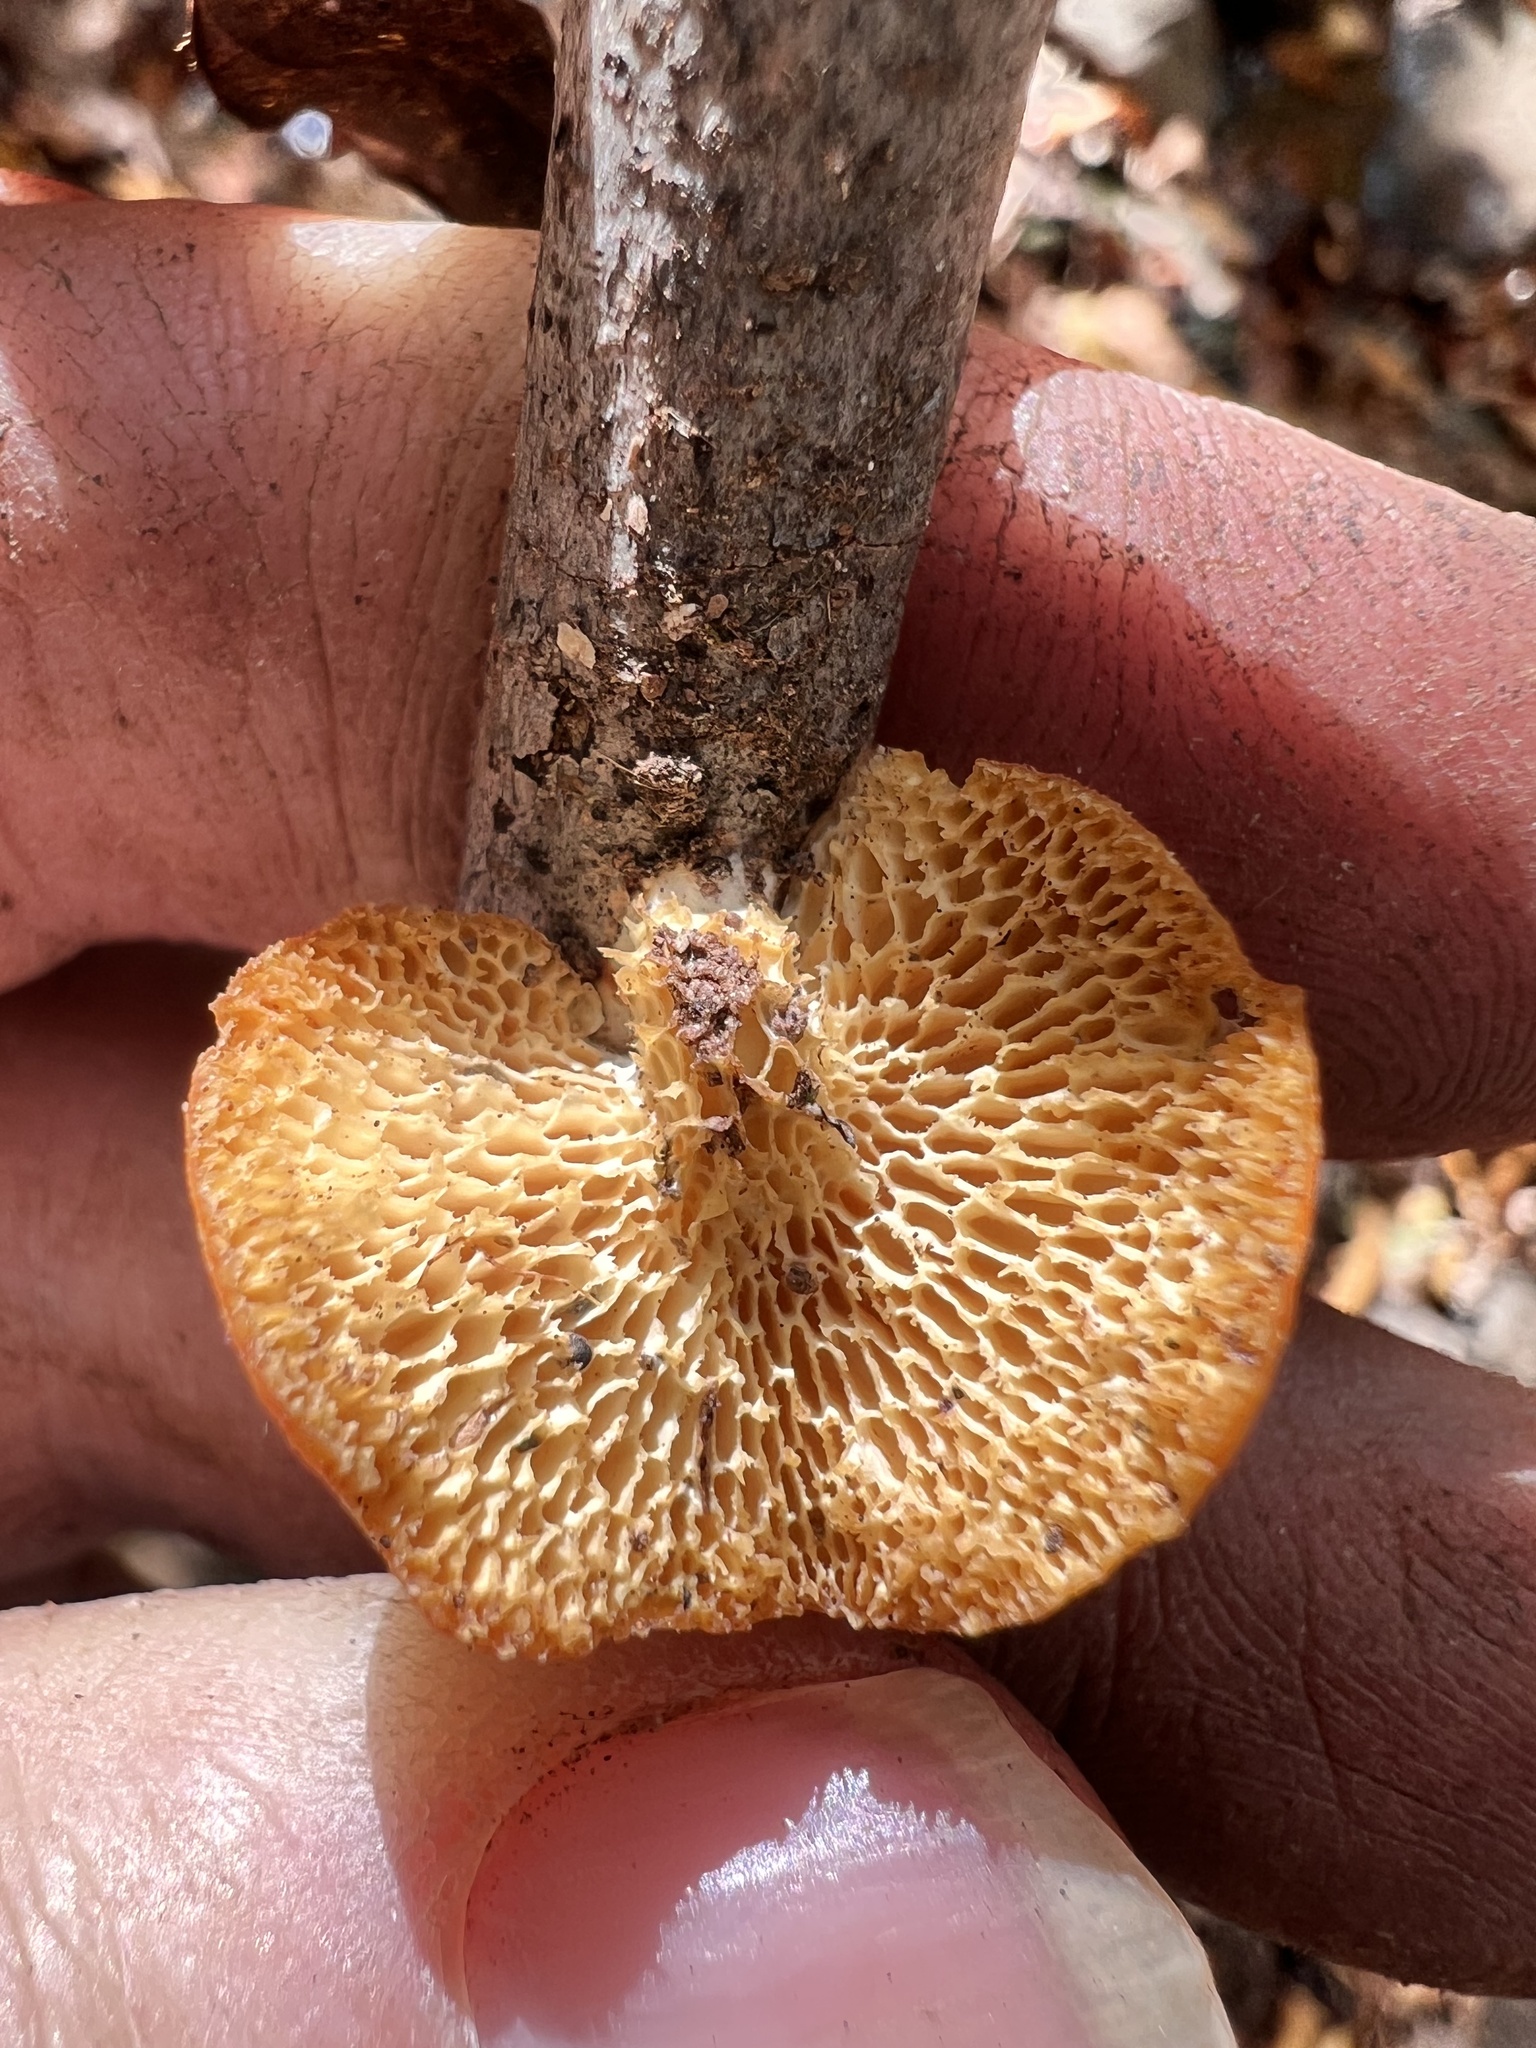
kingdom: Fungi
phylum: Basidiomycota
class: Agaricomycetes
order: Polyporales
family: Polyporaceae
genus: Neofavolus
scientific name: Neofavolus alveolaris
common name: Hexagonal-pored polypore
